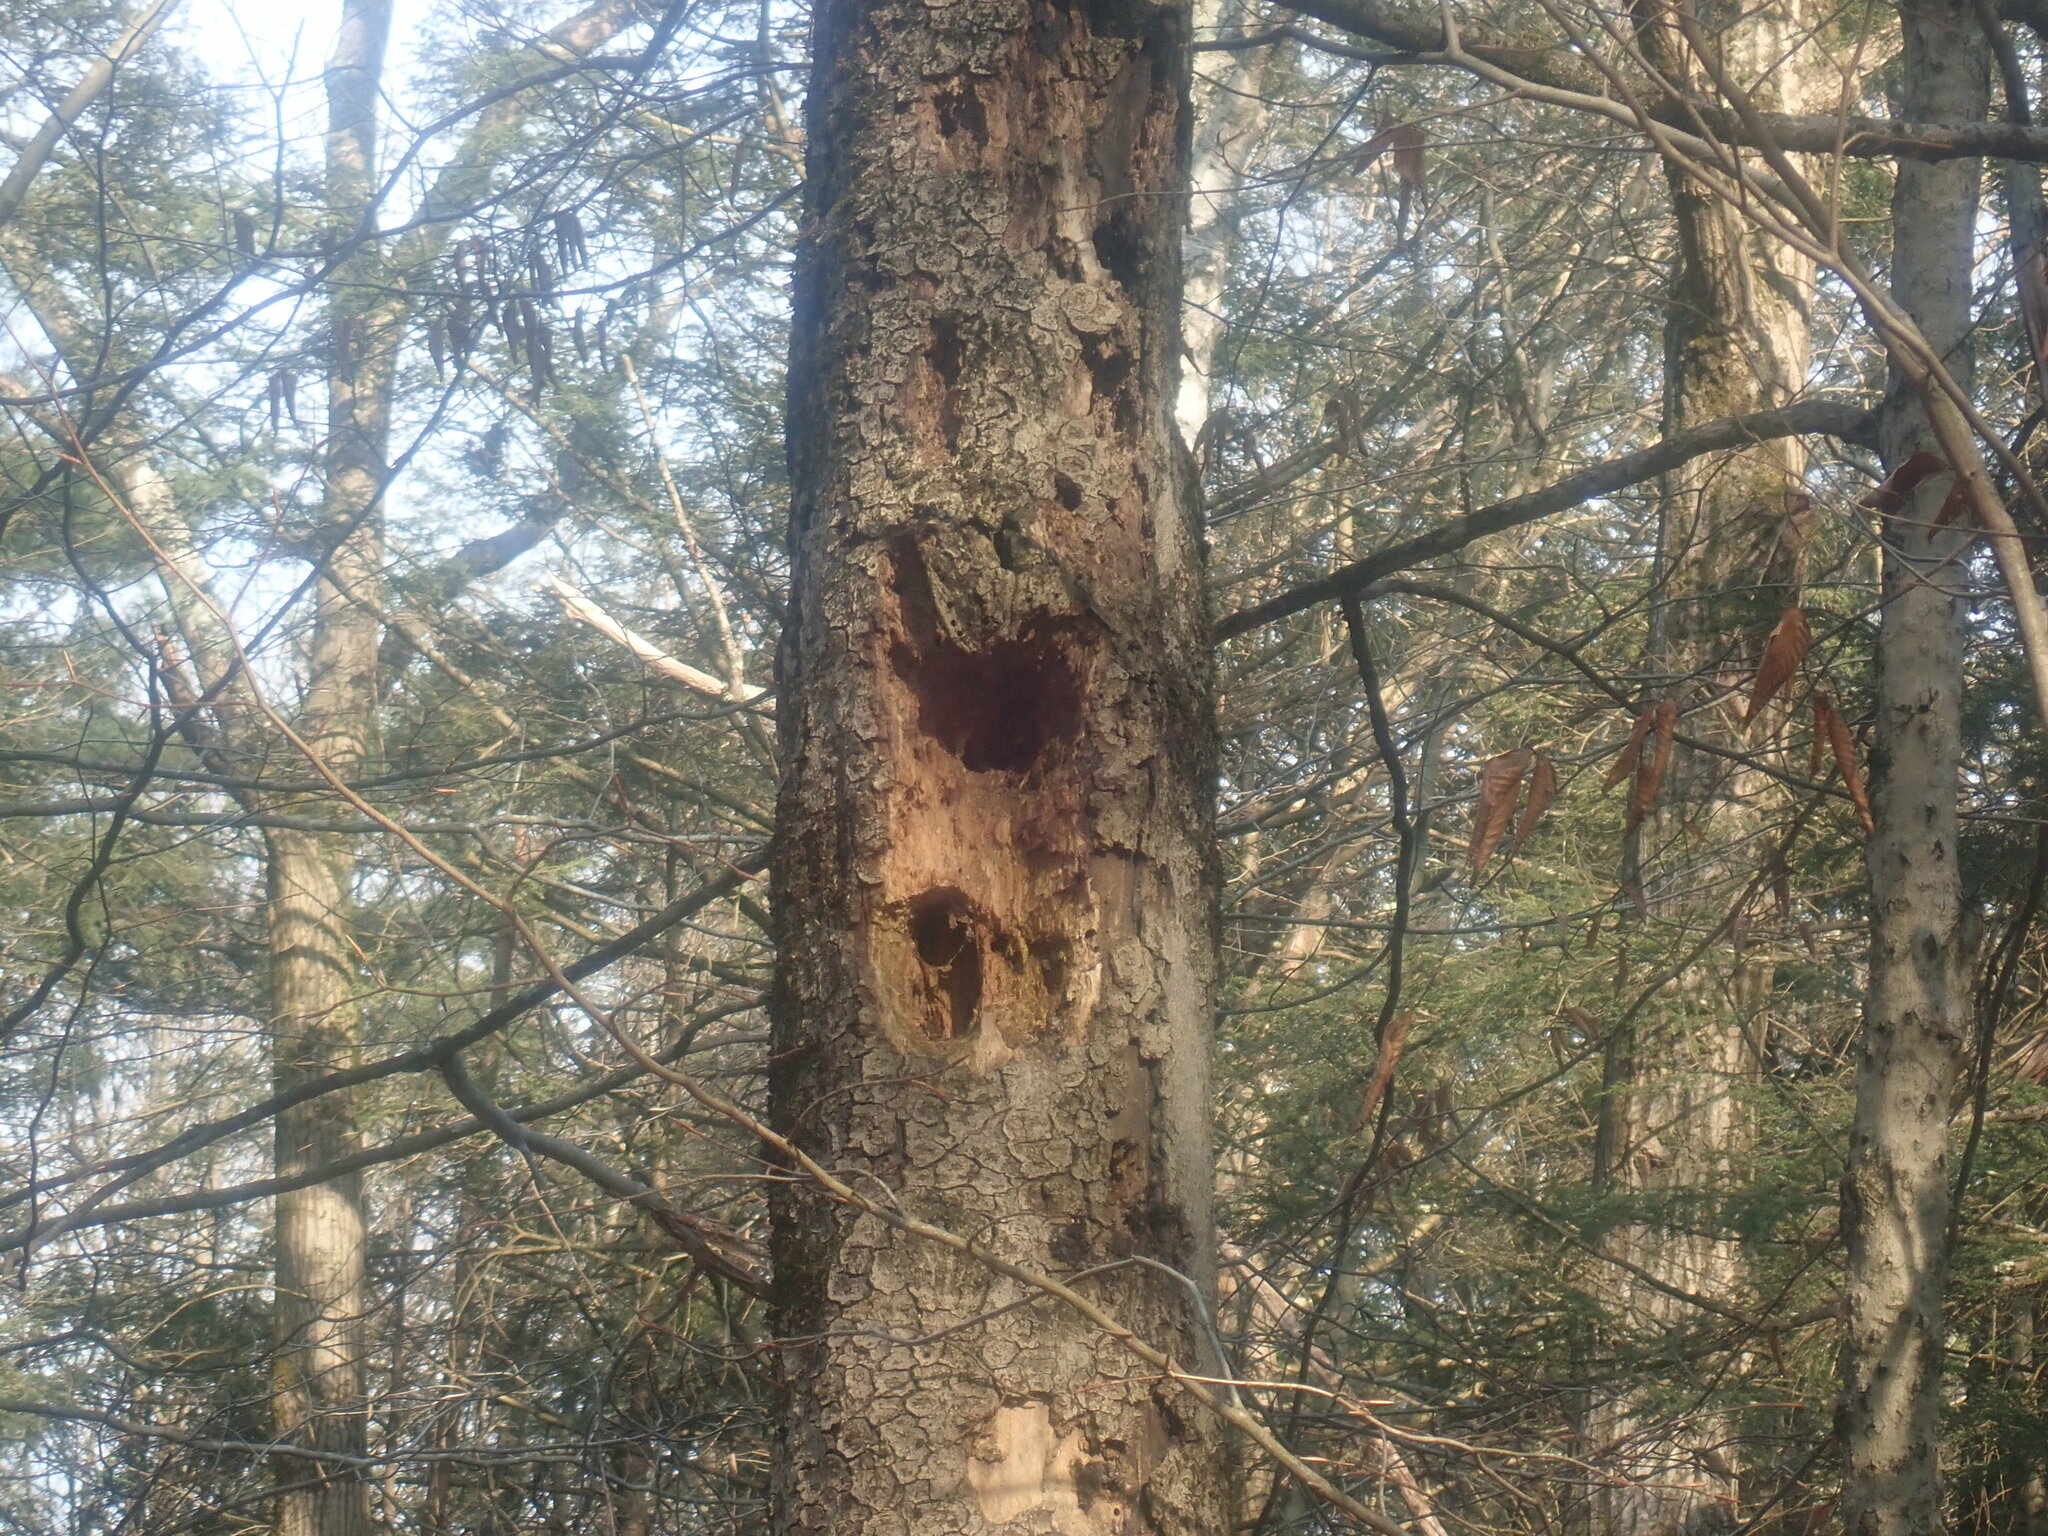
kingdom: Animalia
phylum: Chordata
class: Aves
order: Piciformes
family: Picidae
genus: Dryocopus
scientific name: Dryocopus pileatus
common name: Pileated woodpecker
